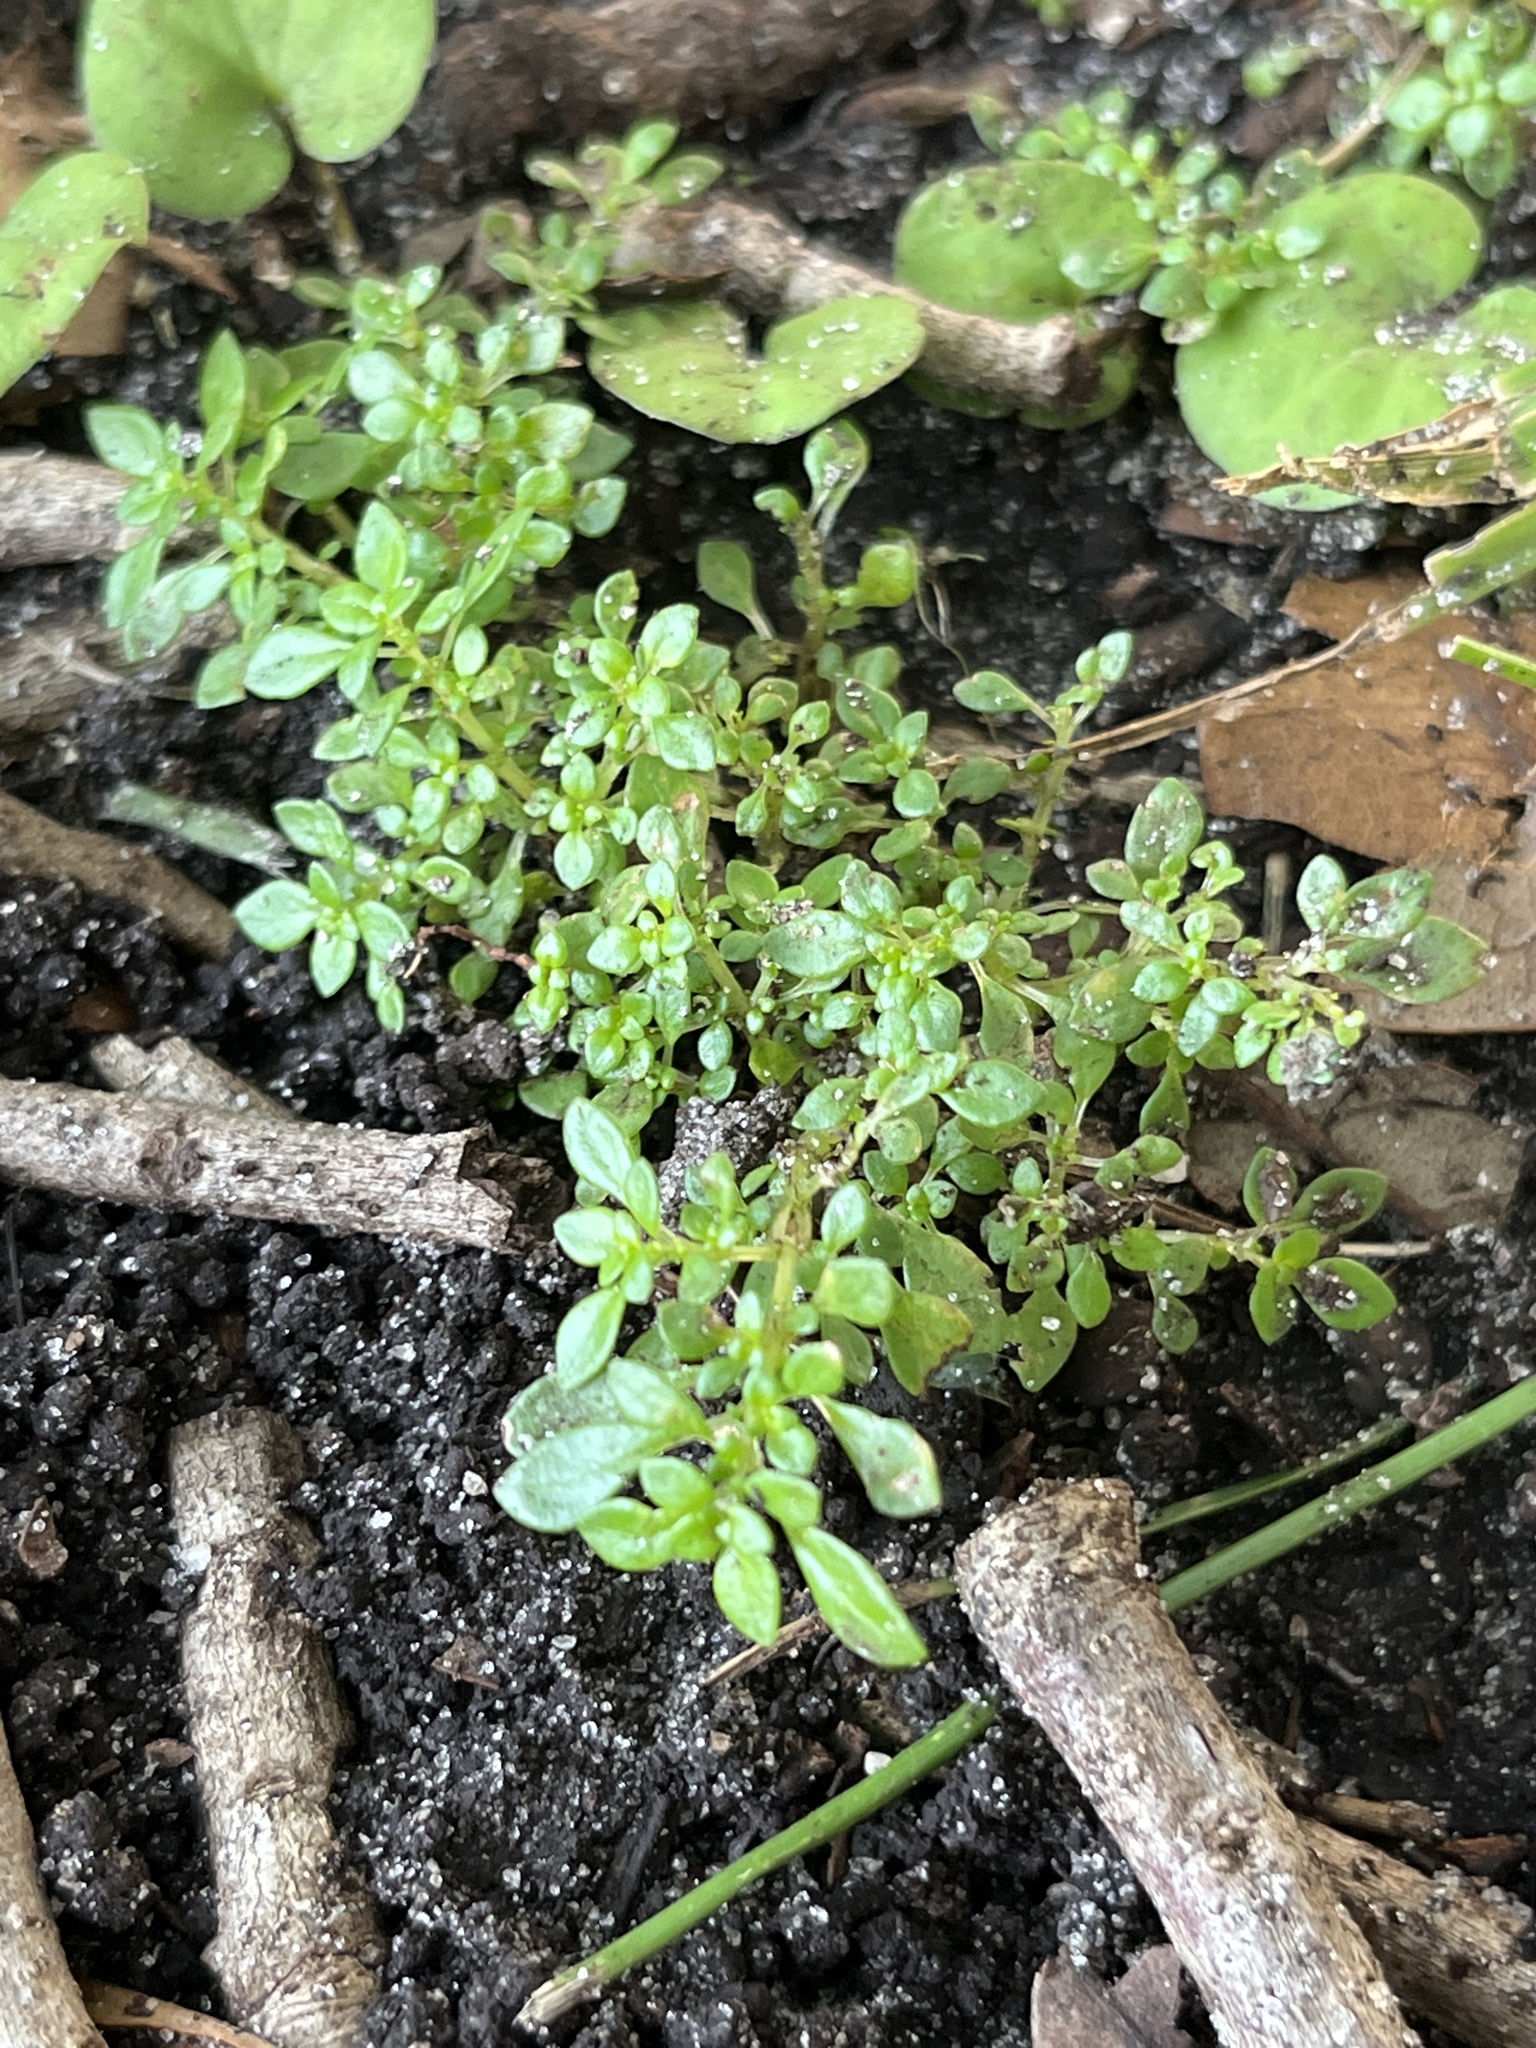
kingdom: Plantae
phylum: Tracheophyta
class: Magnoliopsida
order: Rosales
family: Urticaceae
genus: Pilea
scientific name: Pilea microphylla
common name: Artillery-plant
